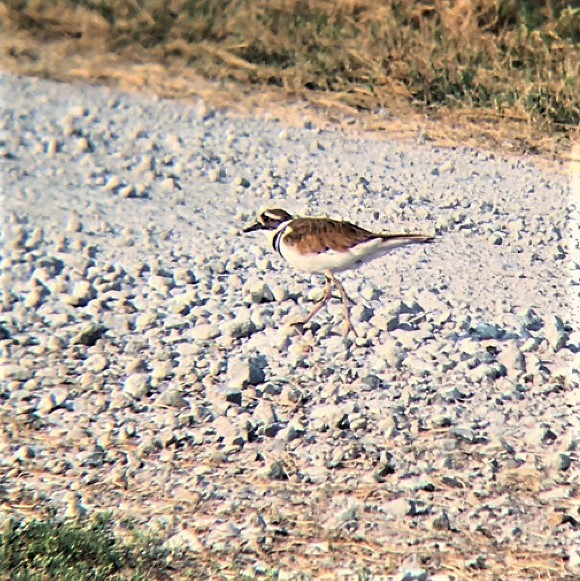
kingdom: Animalia
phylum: Chordata
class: Aves
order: Charadriiformes
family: Charadriidae
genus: Charadrius
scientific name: Charadrius vociferus
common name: Killdeer
